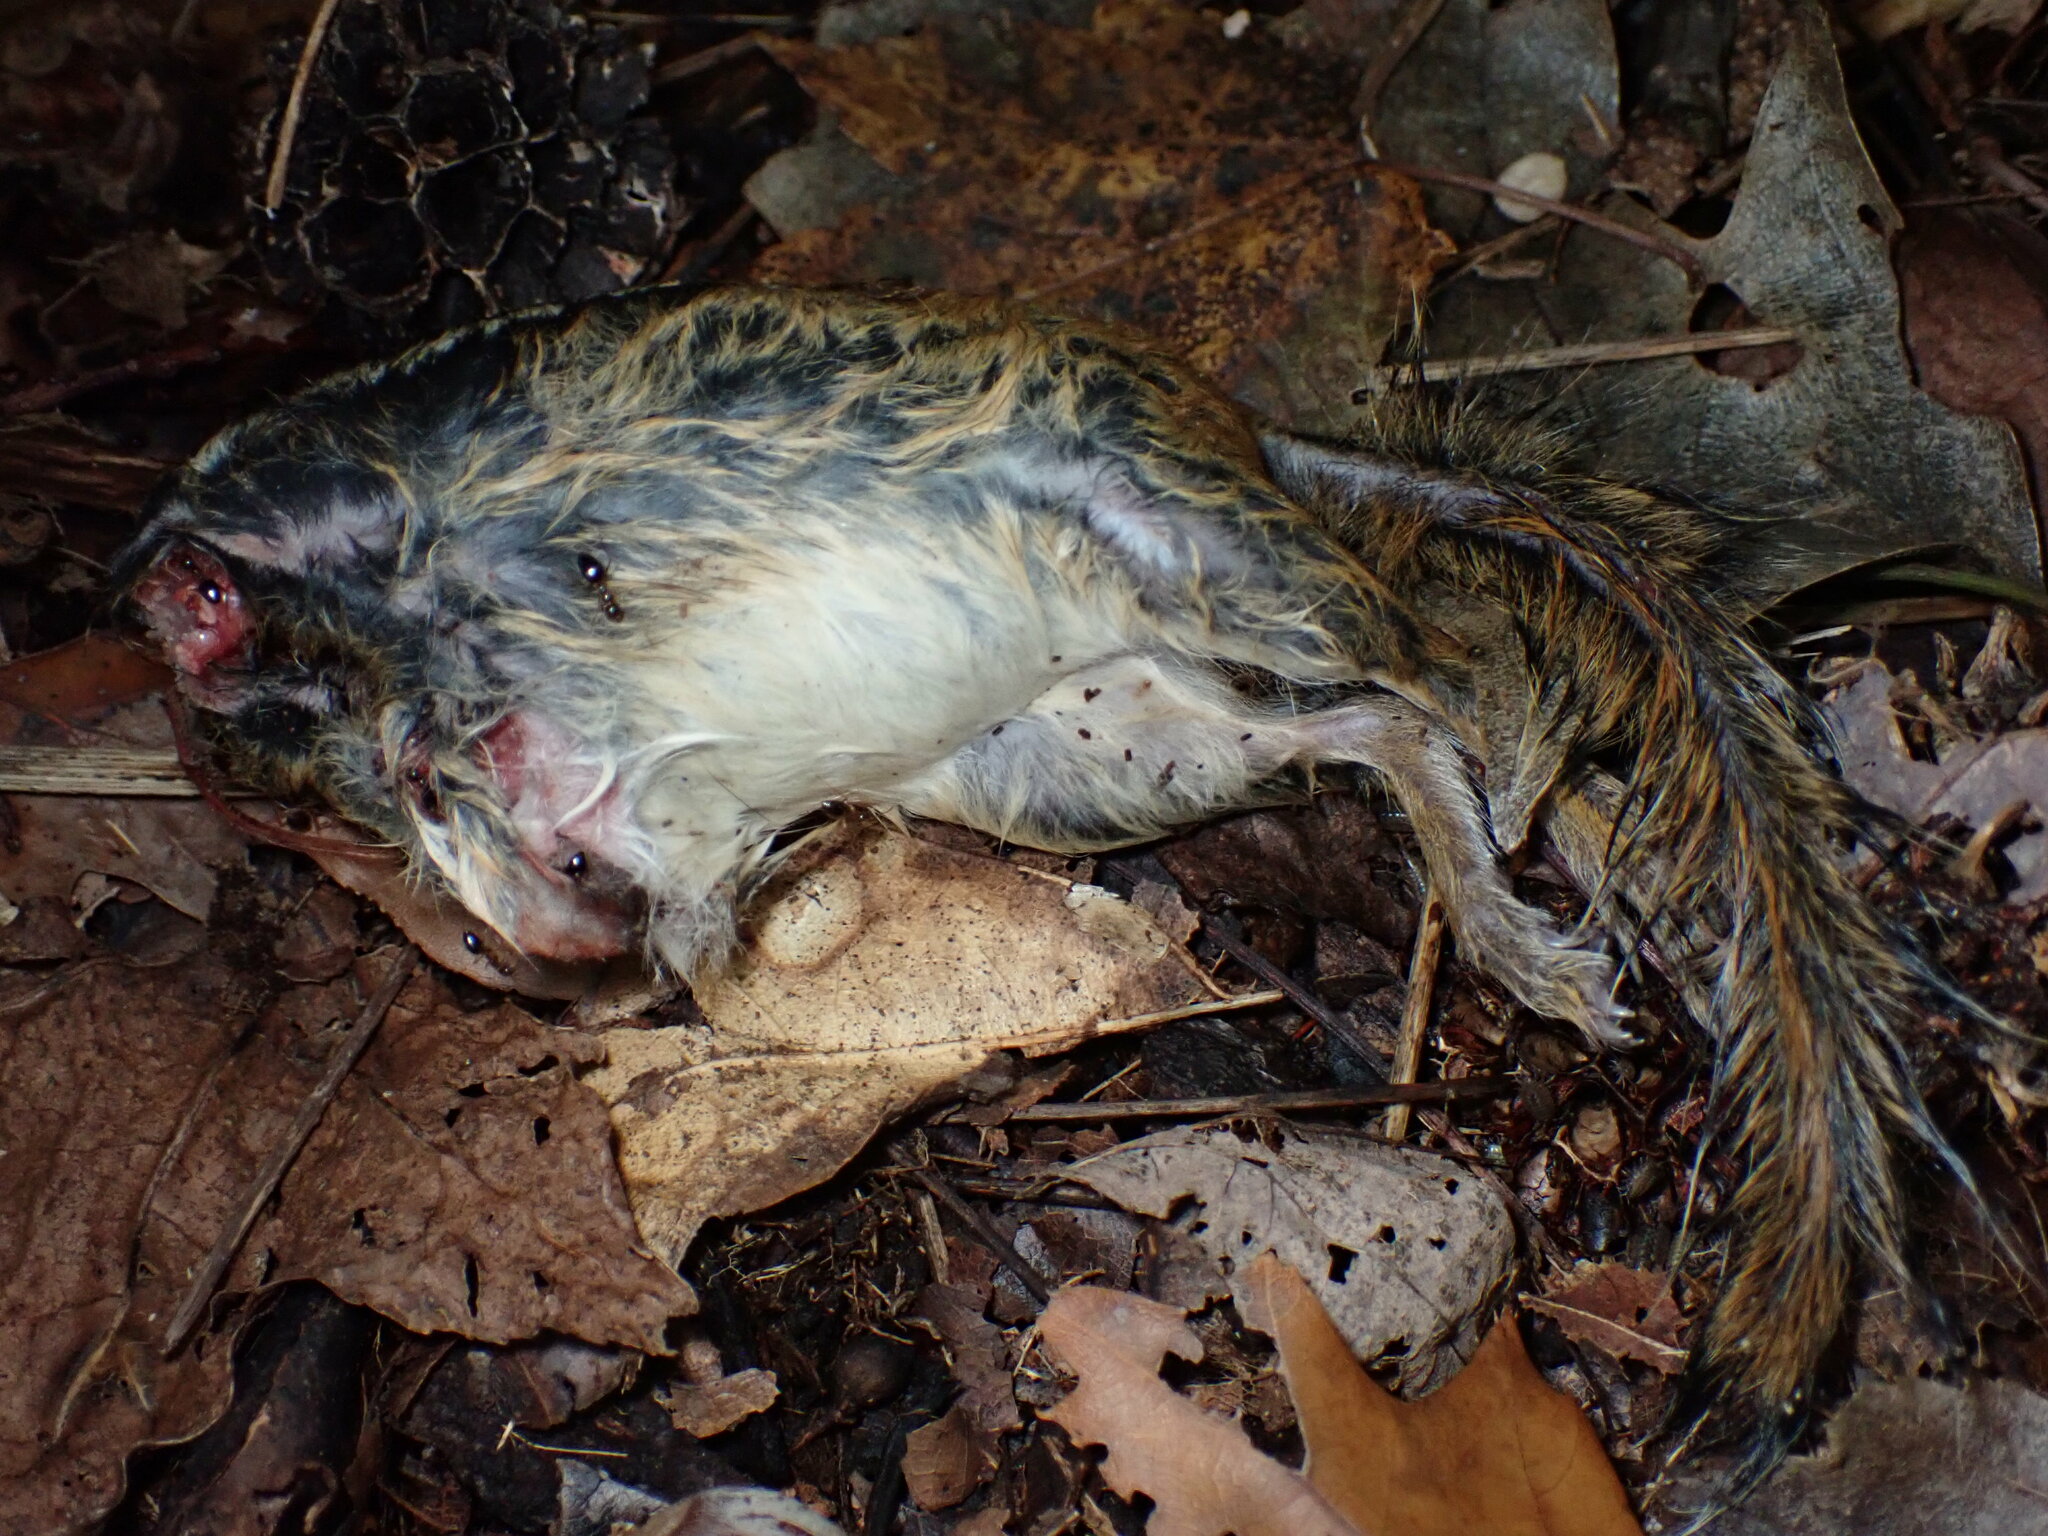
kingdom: Animalia
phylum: Chordata
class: Mammalia
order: Rodentia
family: Sciuridae
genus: Tamias
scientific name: Tamias striatus
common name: Eastern chipmunk
